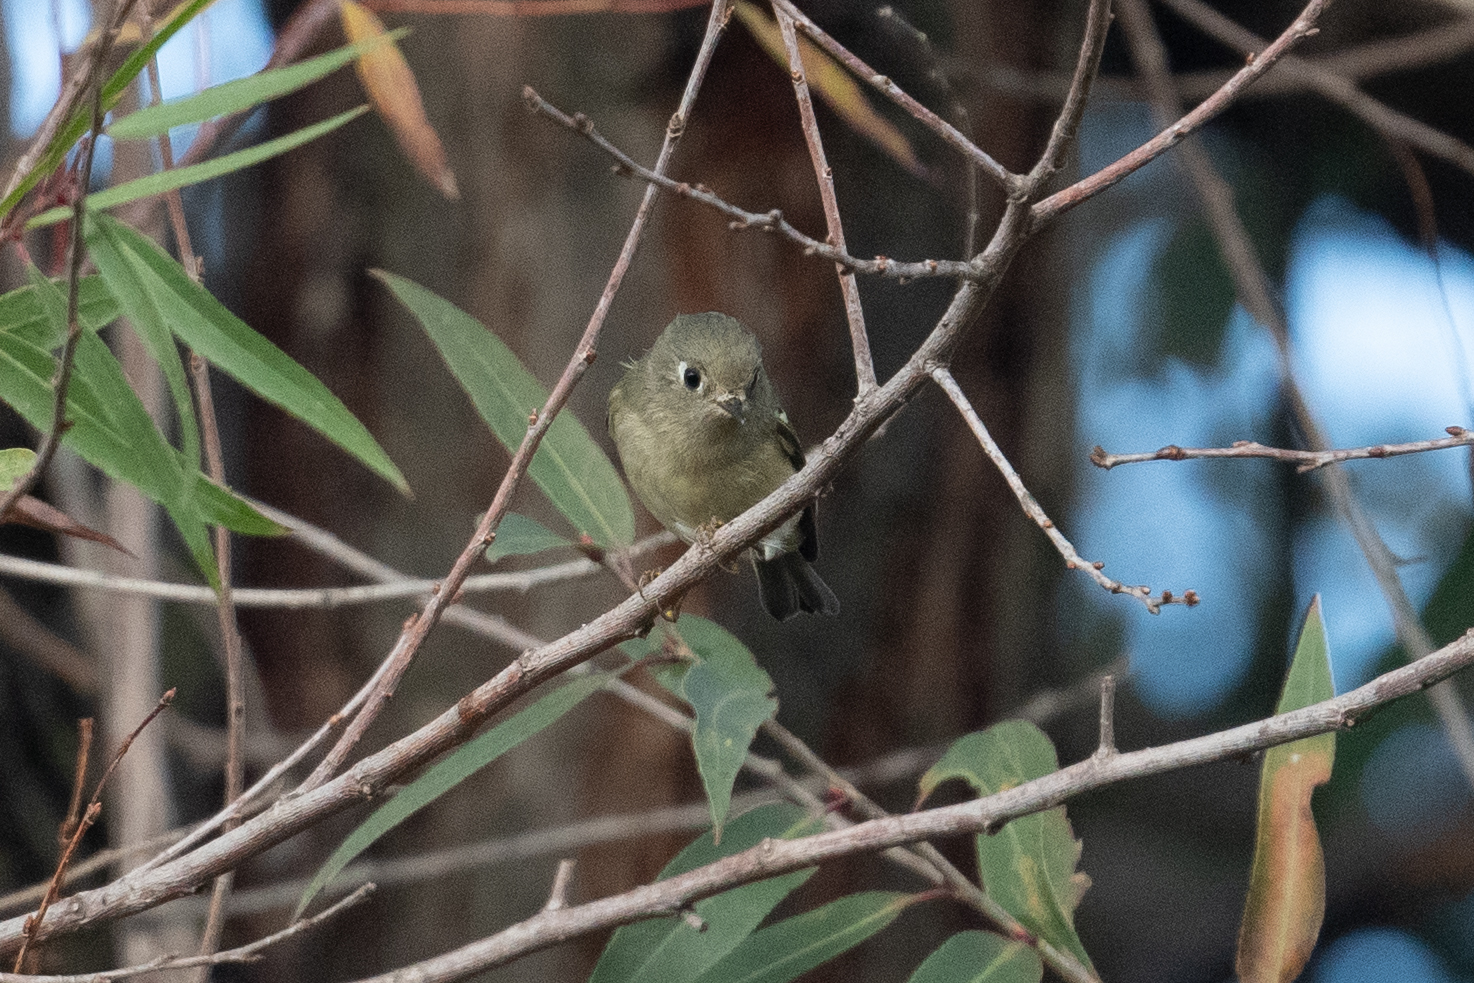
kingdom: Animalia
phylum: Chordata
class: Aves
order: Passeriformes
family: Regulidae
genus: Regulus
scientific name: Regulus calendula
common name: Ruby-crowned kinglet
